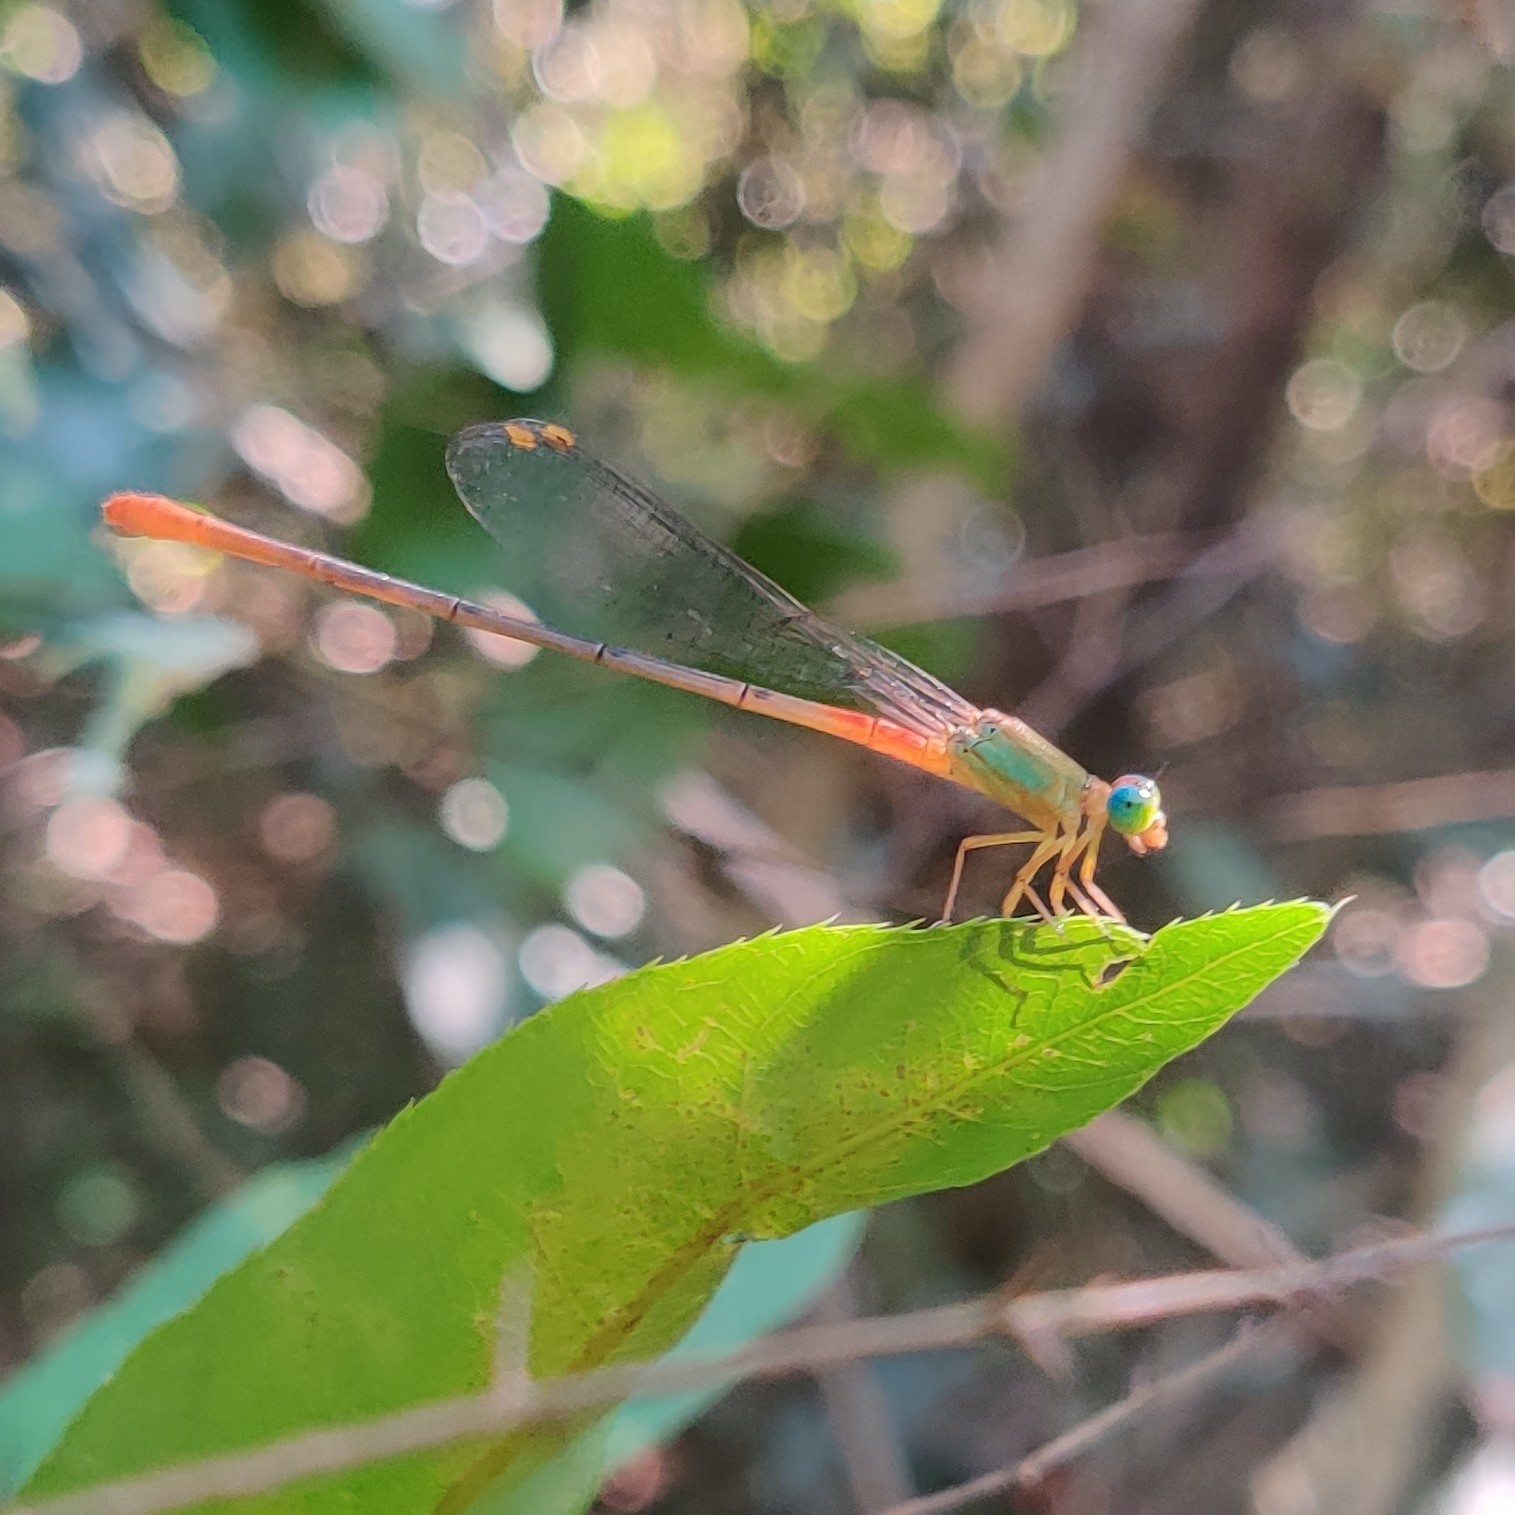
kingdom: Animalia
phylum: Arthropoda
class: Insecta
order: Odonata
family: Coenagrionidae
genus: Ceriagrion
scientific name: Ceriagrion cerinorubellum
